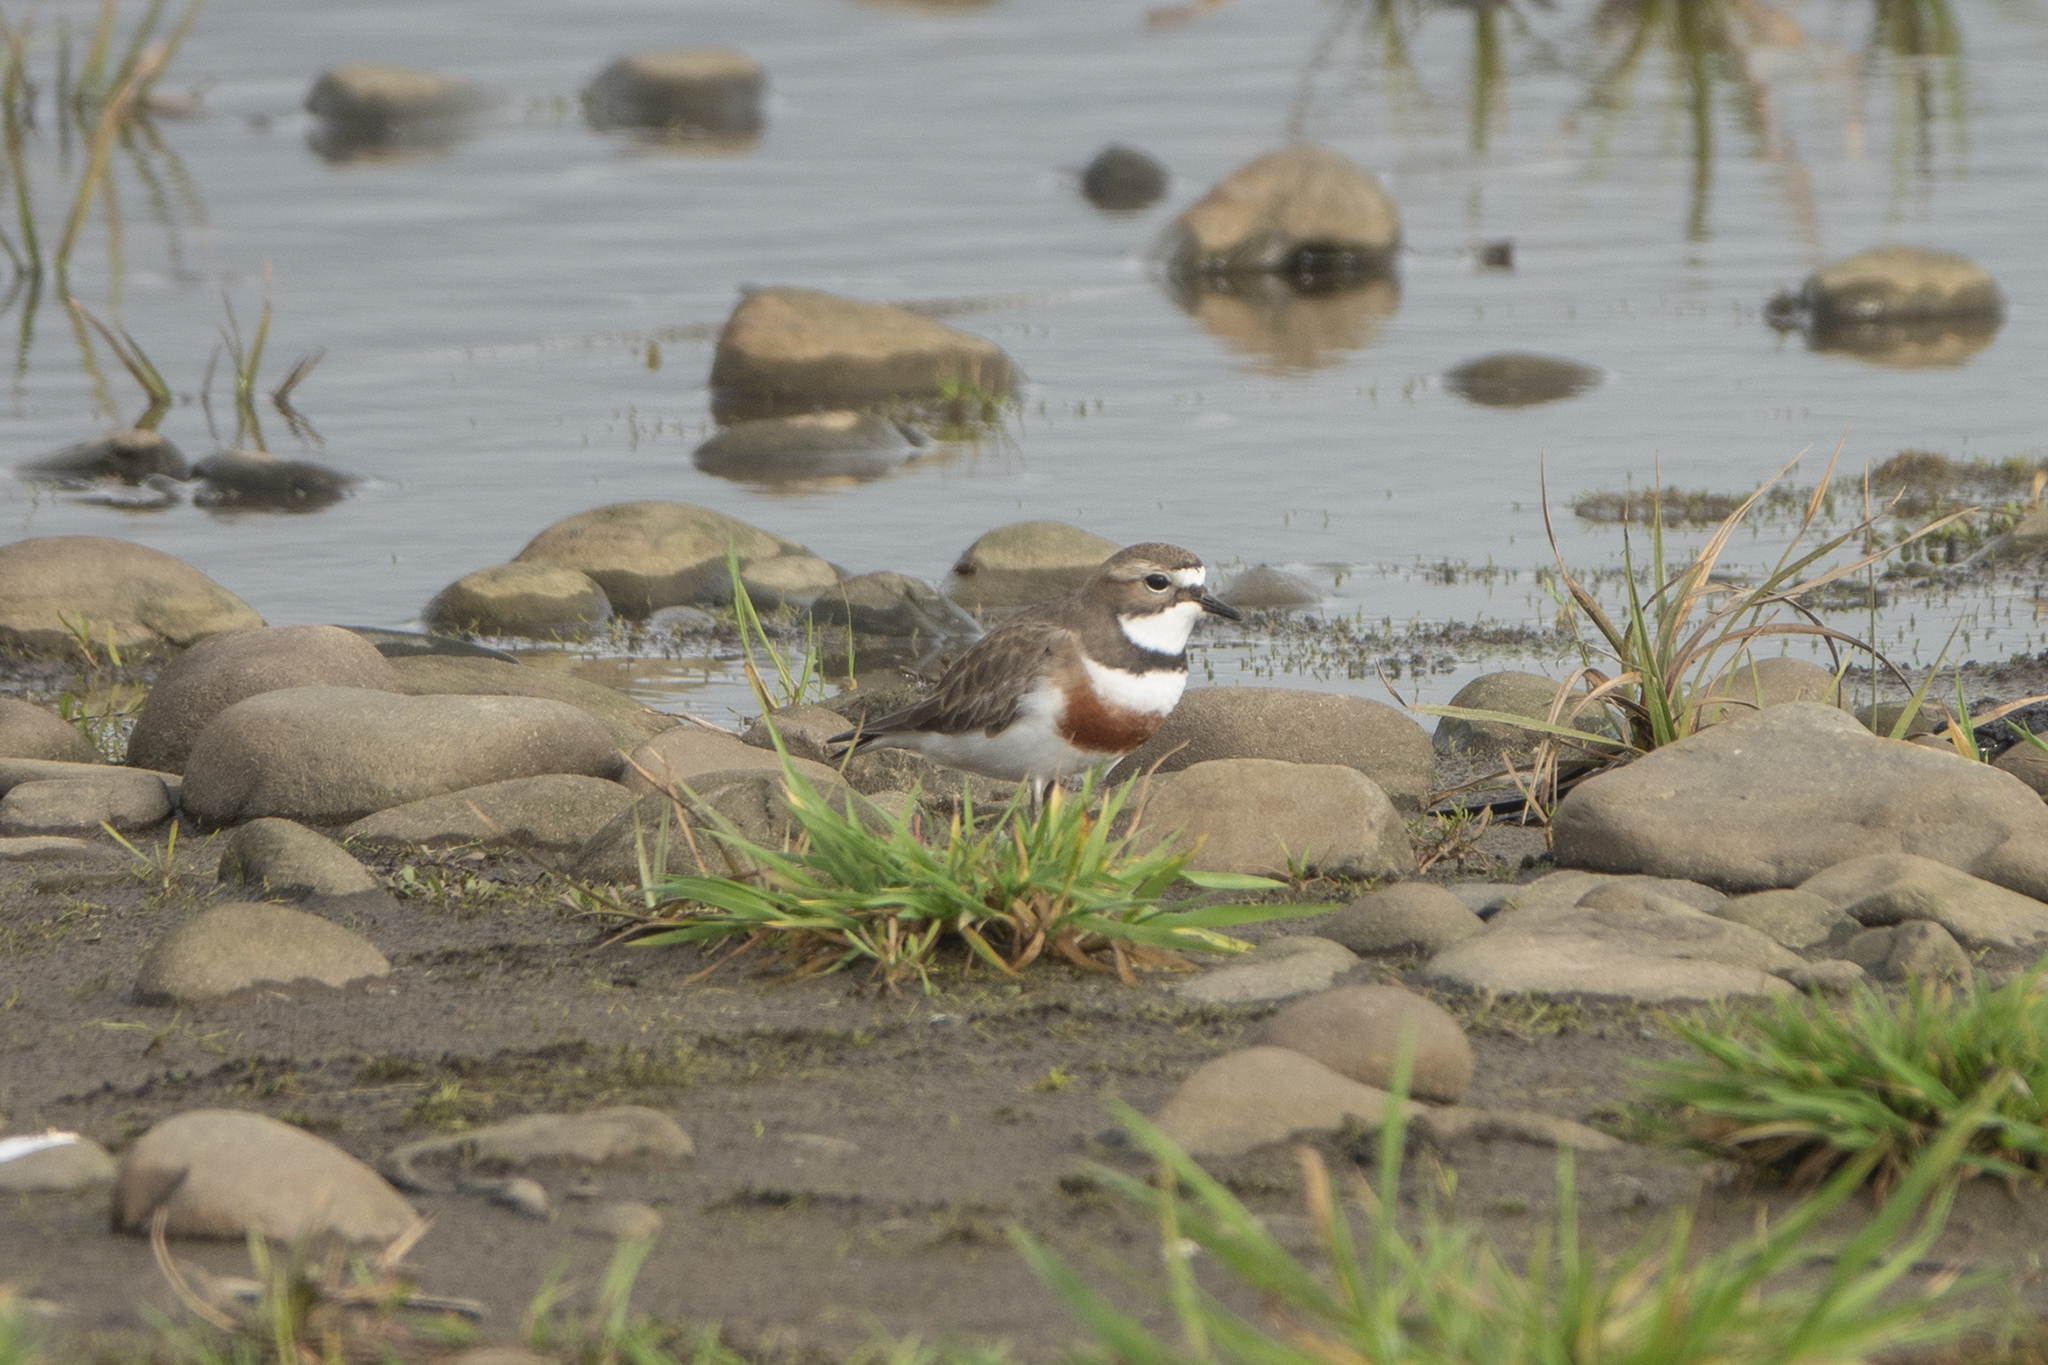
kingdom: Animalia
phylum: Chordata
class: Aves
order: Charadriiformes
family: Charadriidae
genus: Anarhynchus
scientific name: Anarhynchus
